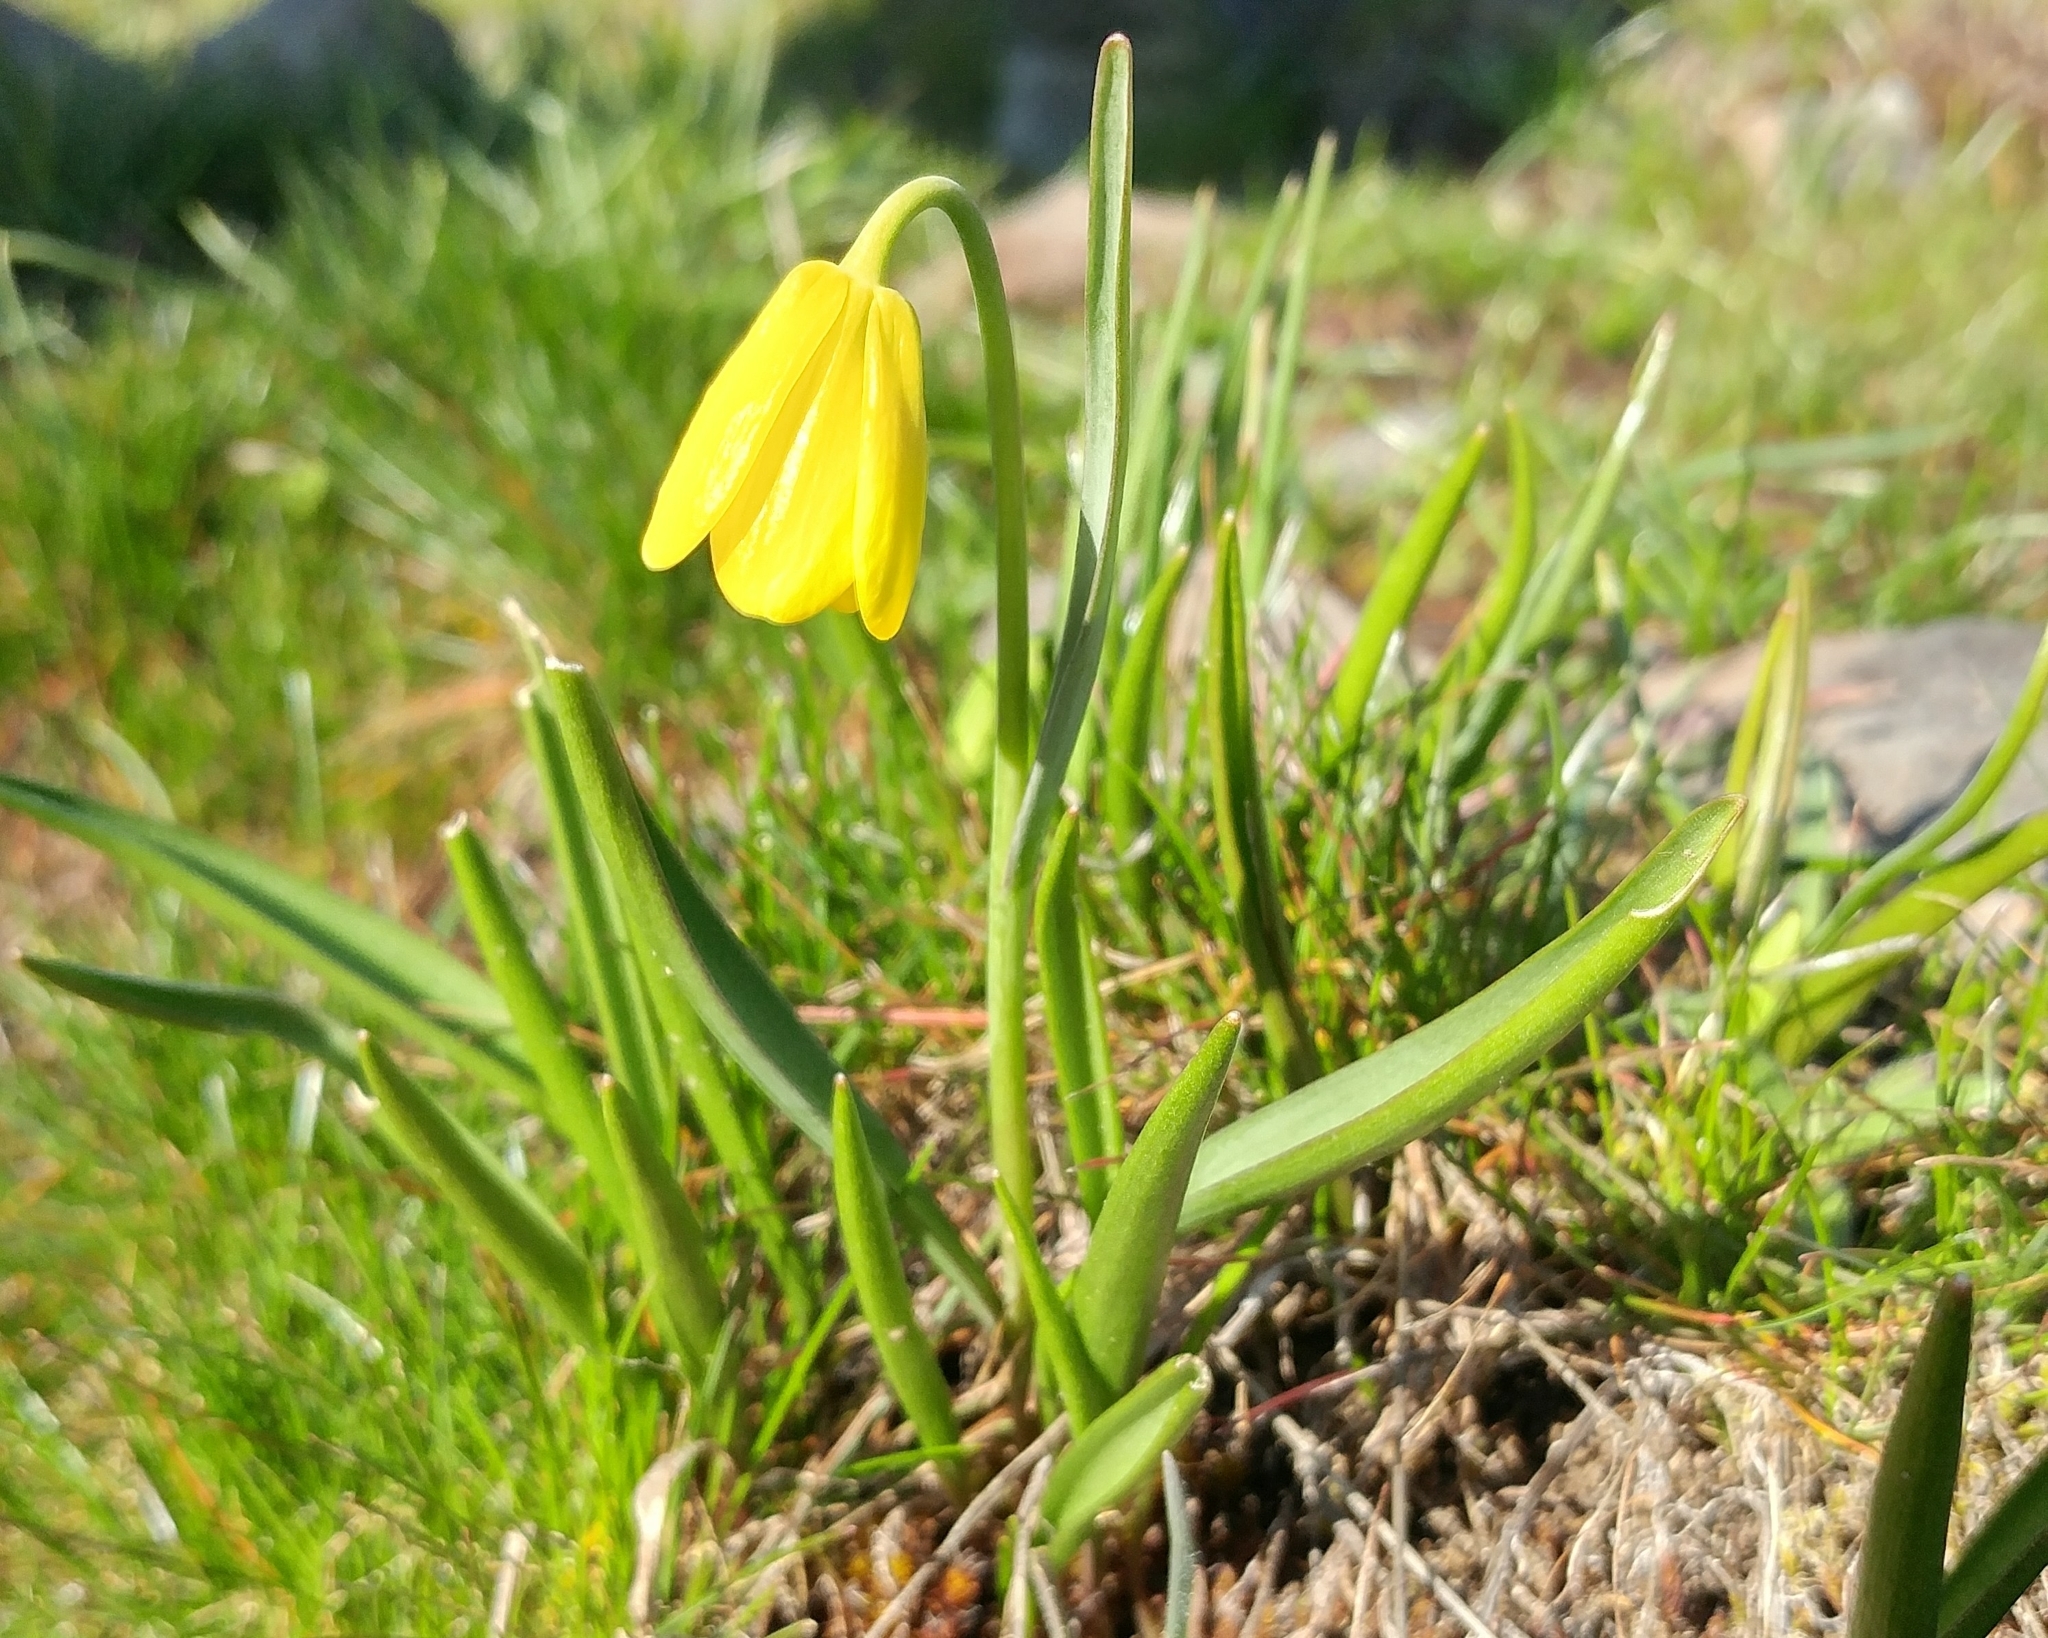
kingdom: Plantae
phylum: Tracheophyta
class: Liliopsida
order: Liliales
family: Liliaceae
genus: Fritillaria
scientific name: Fritillaria pudica
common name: Yellow fritillary
